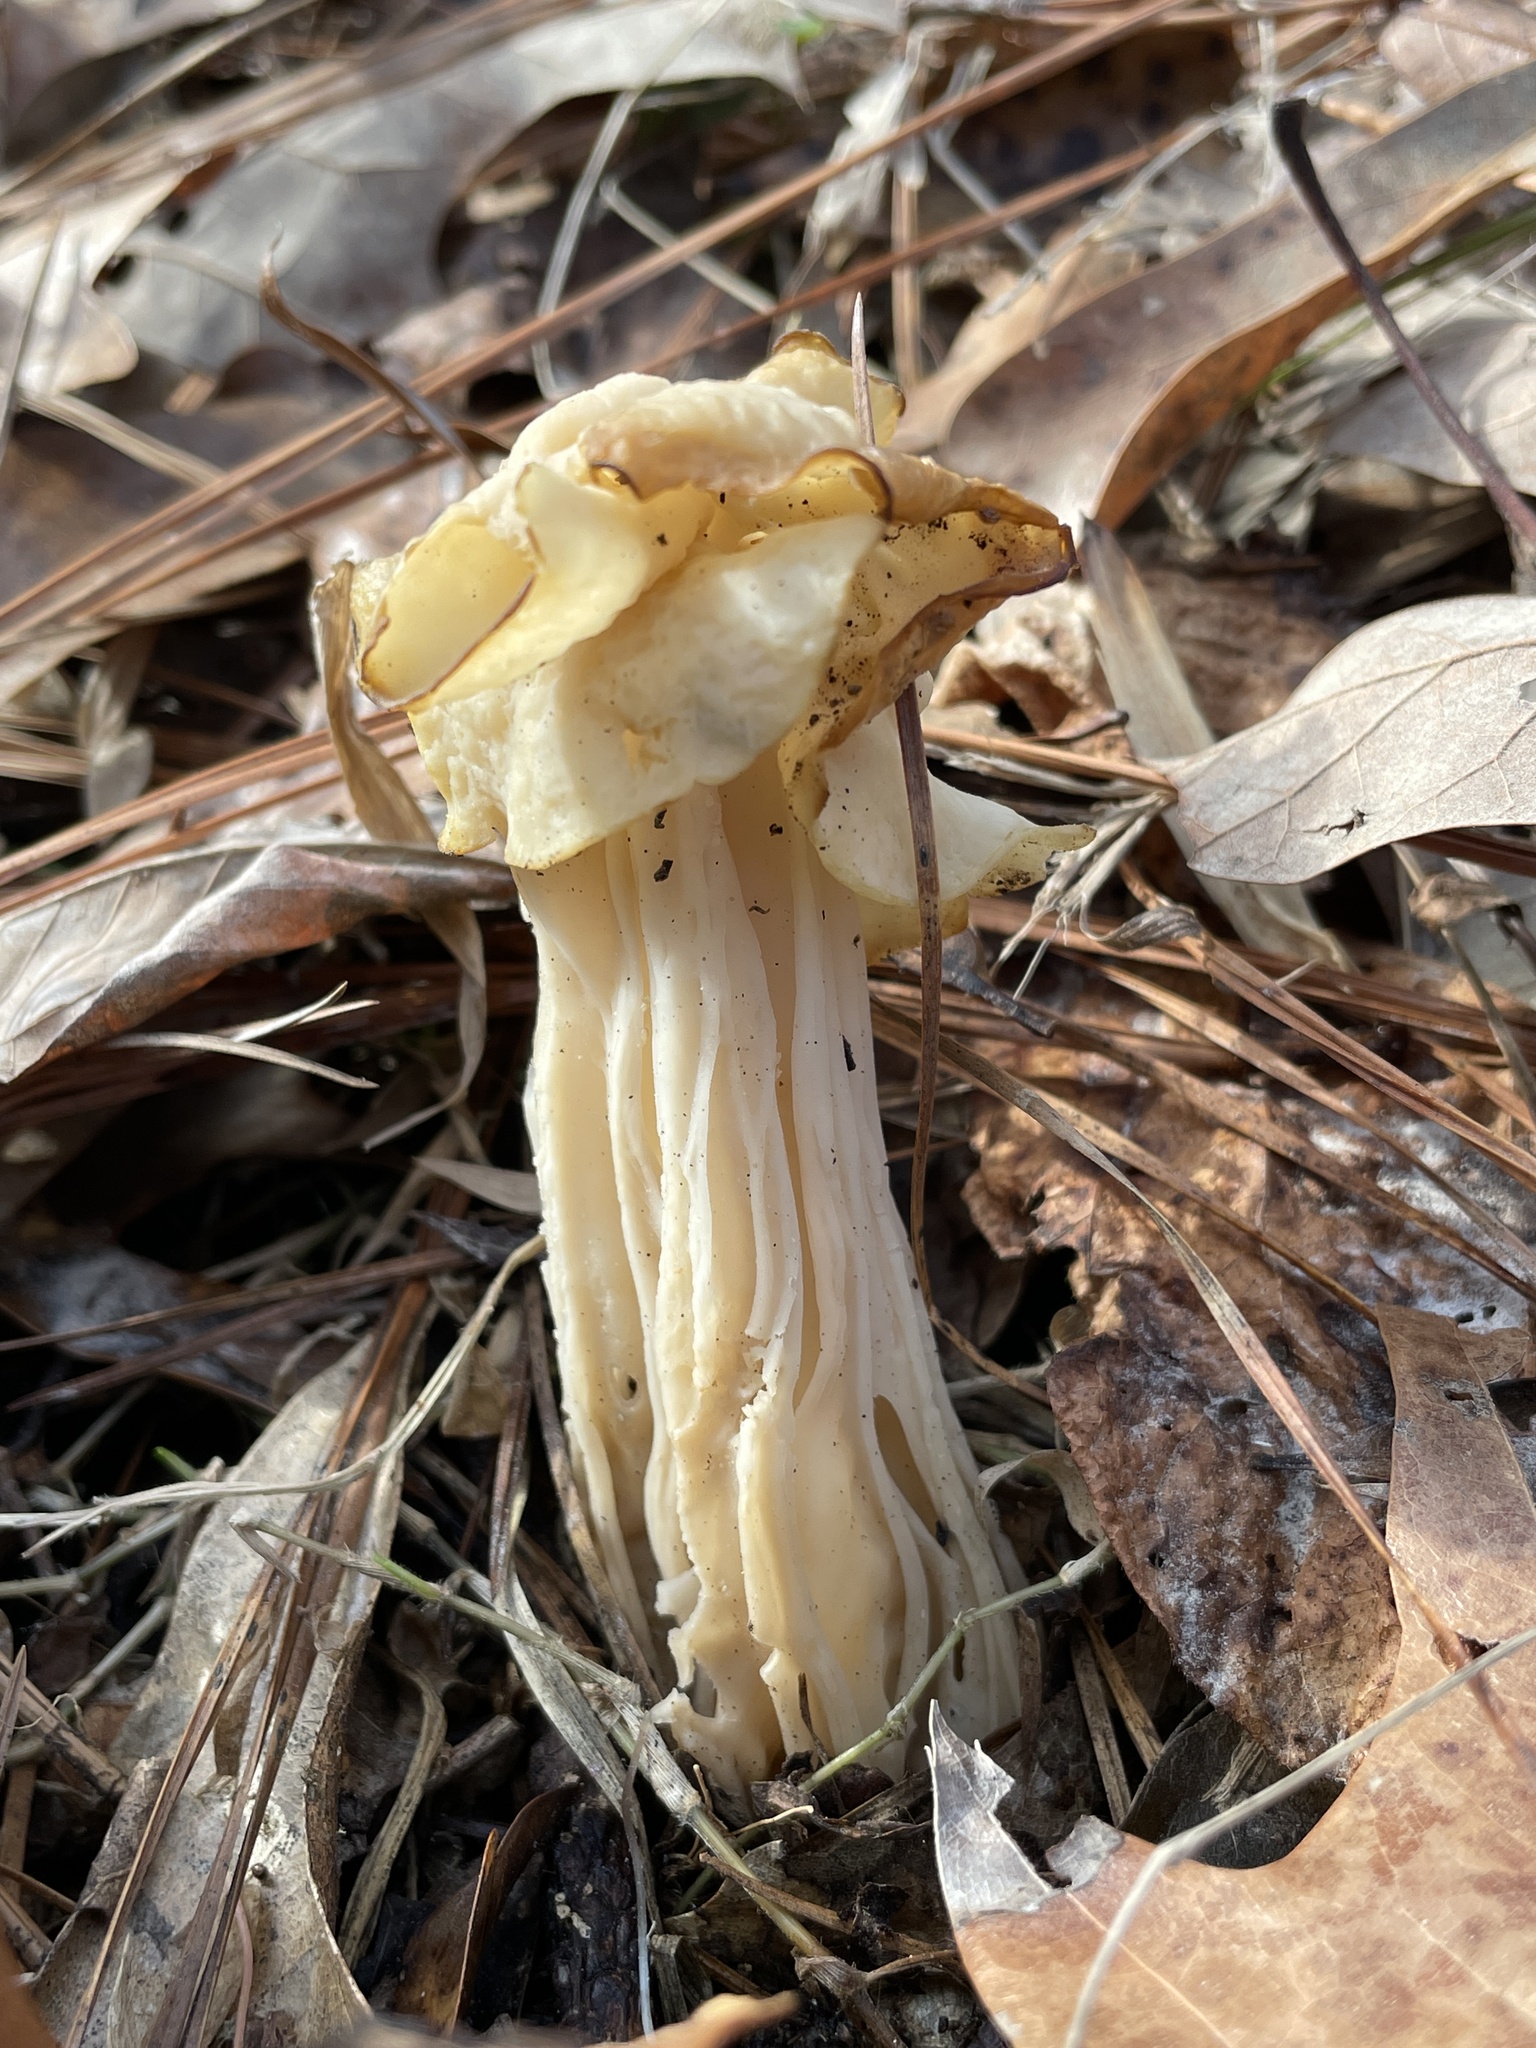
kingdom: Fungi
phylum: Ascomycota
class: Pezizomycetes
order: Pezizales
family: Helvellaceae
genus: Helvella
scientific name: Helvella crispa
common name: White saddle
